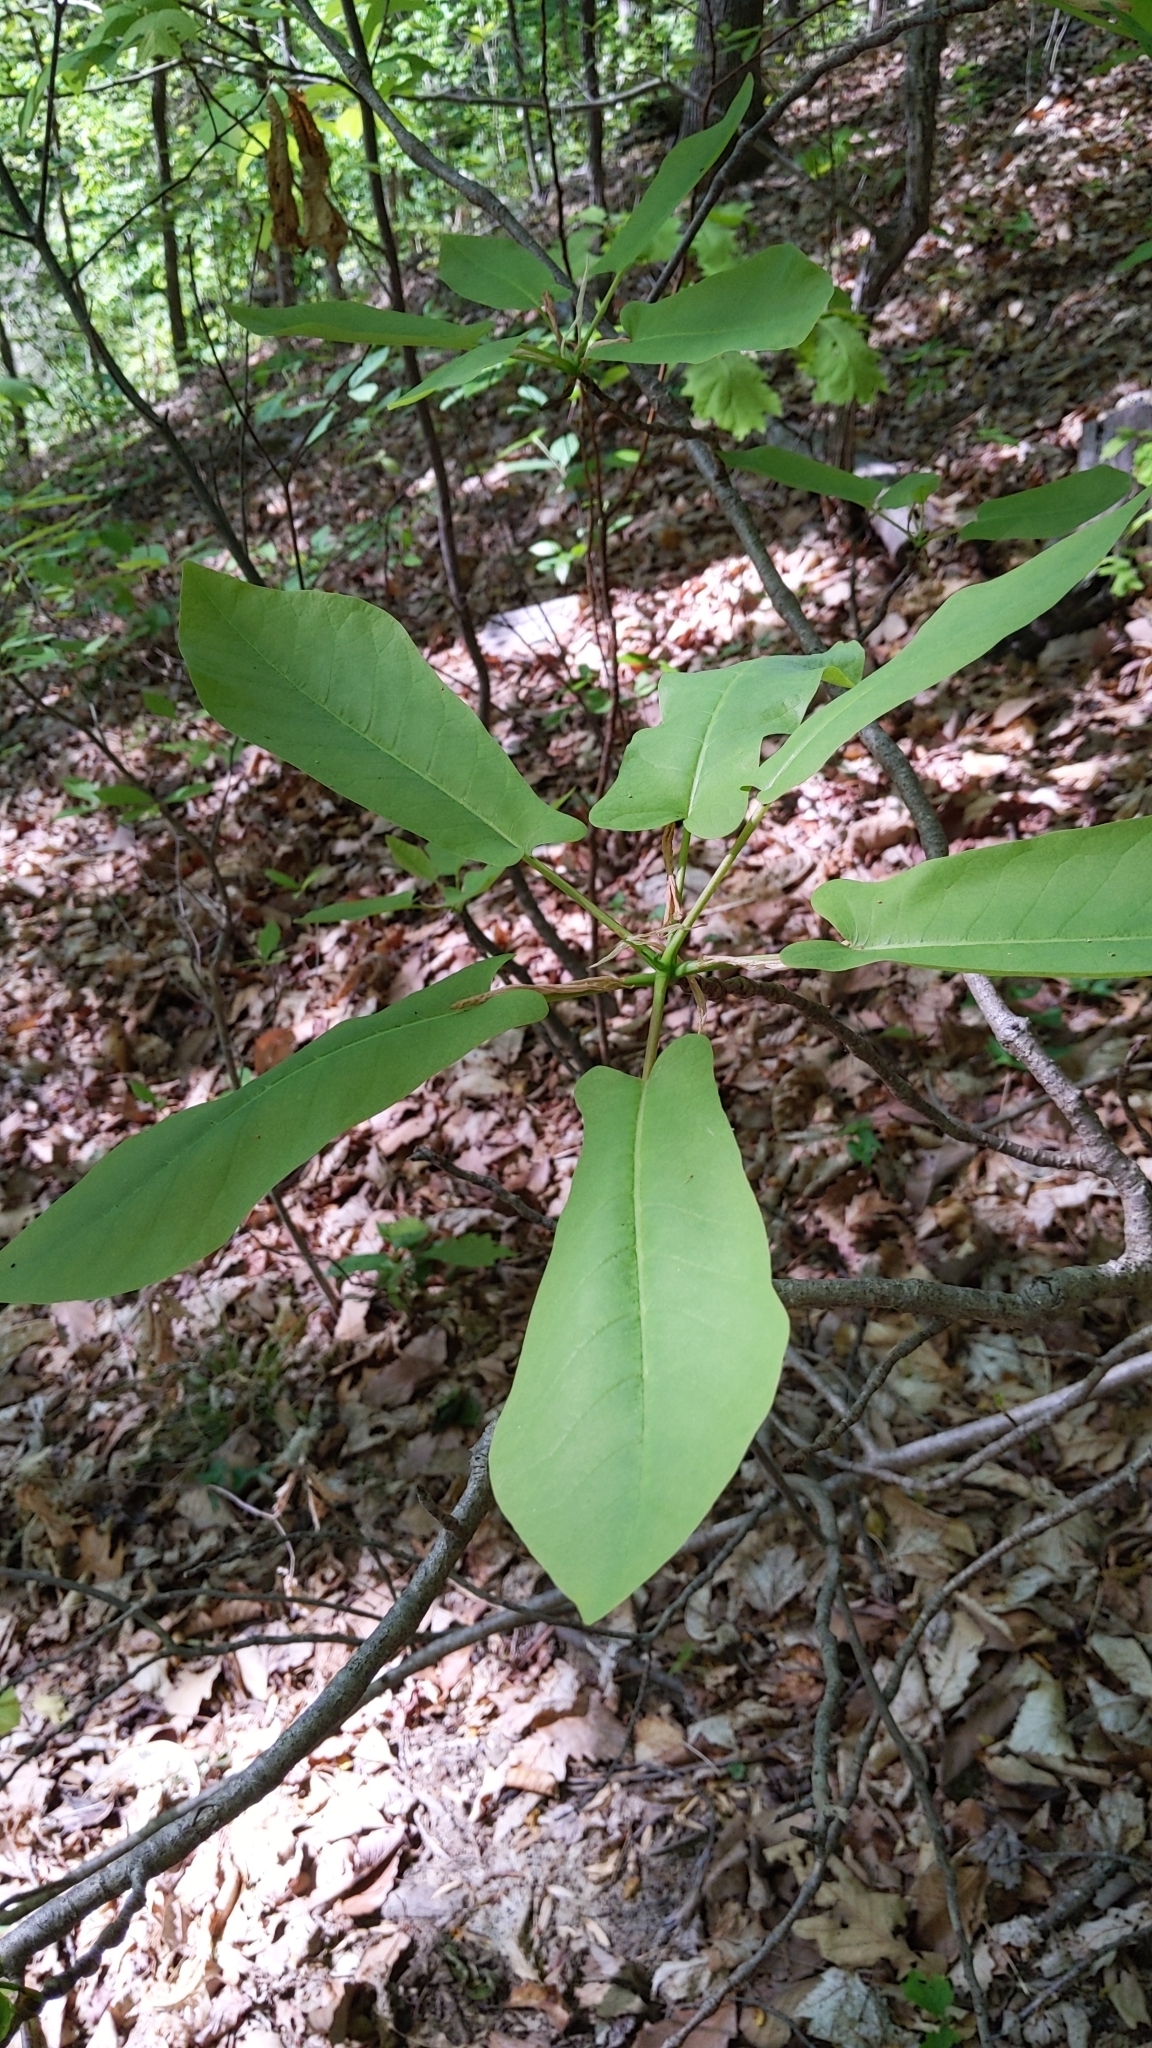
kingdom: Plantae
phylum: Tracheophyta
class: Magnoliopsida
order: Magnoliales
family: Magnoliaceae
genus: Magnolia
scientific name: Magnolia fraseri
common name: Fraser's magnolia
